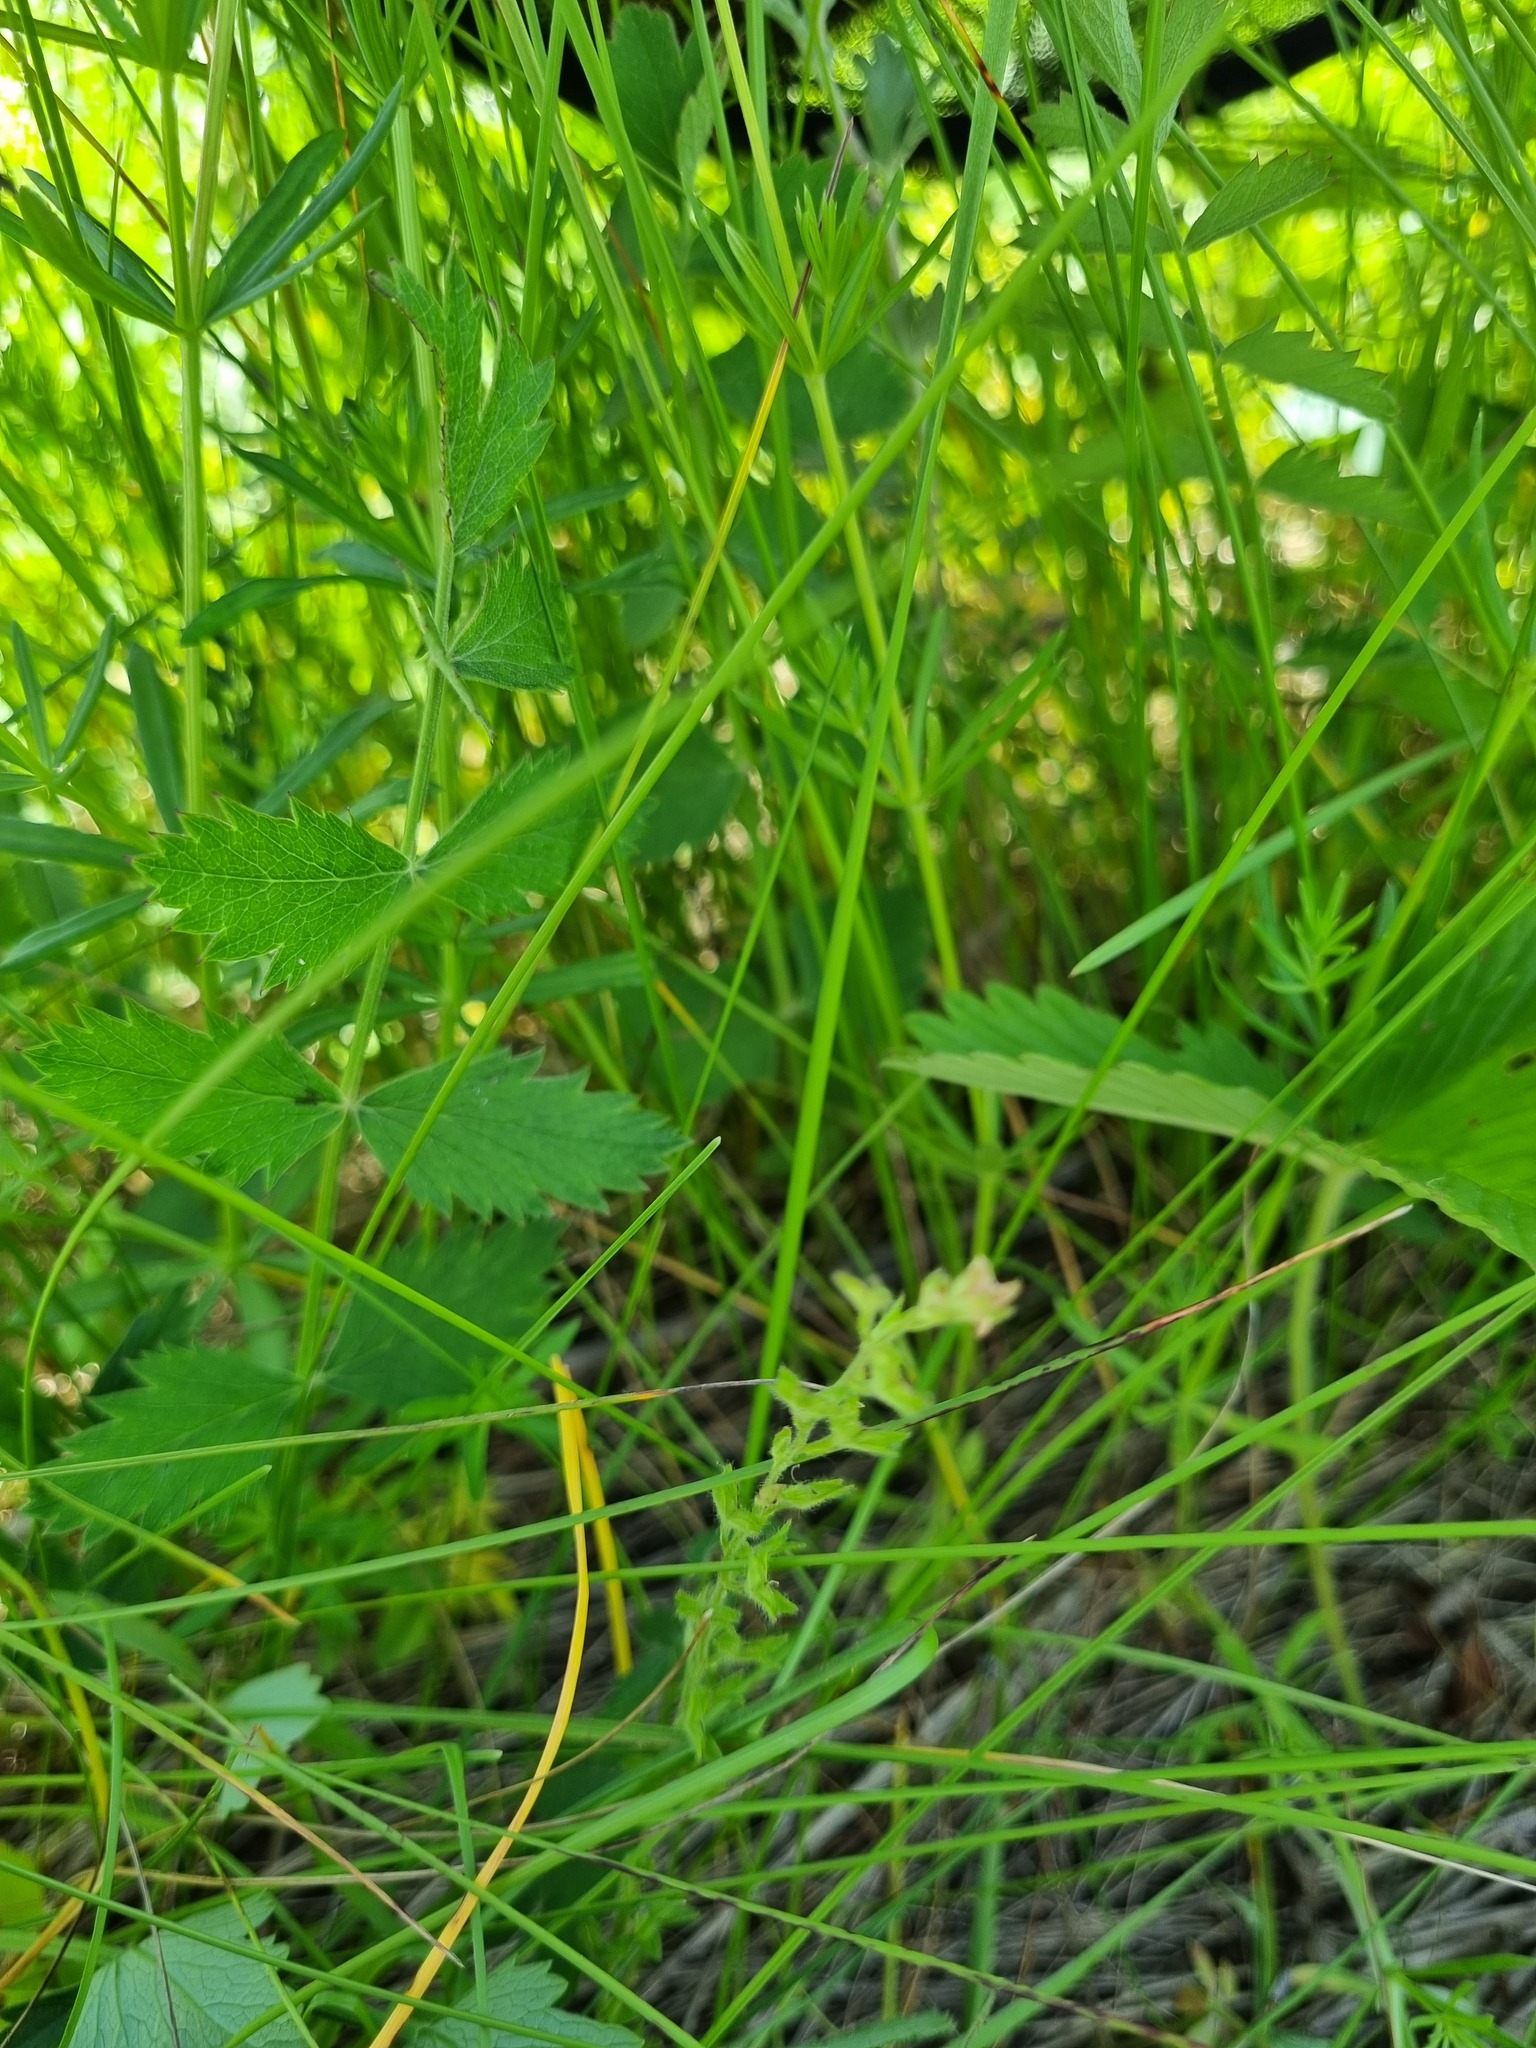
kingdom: Plantae
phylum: Tracheophyta
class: Magnoliopsida
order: Lamiales
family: Plantaginaceae
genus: Veronica
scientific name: Veronica chamaedrys
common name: Germander speedwell
